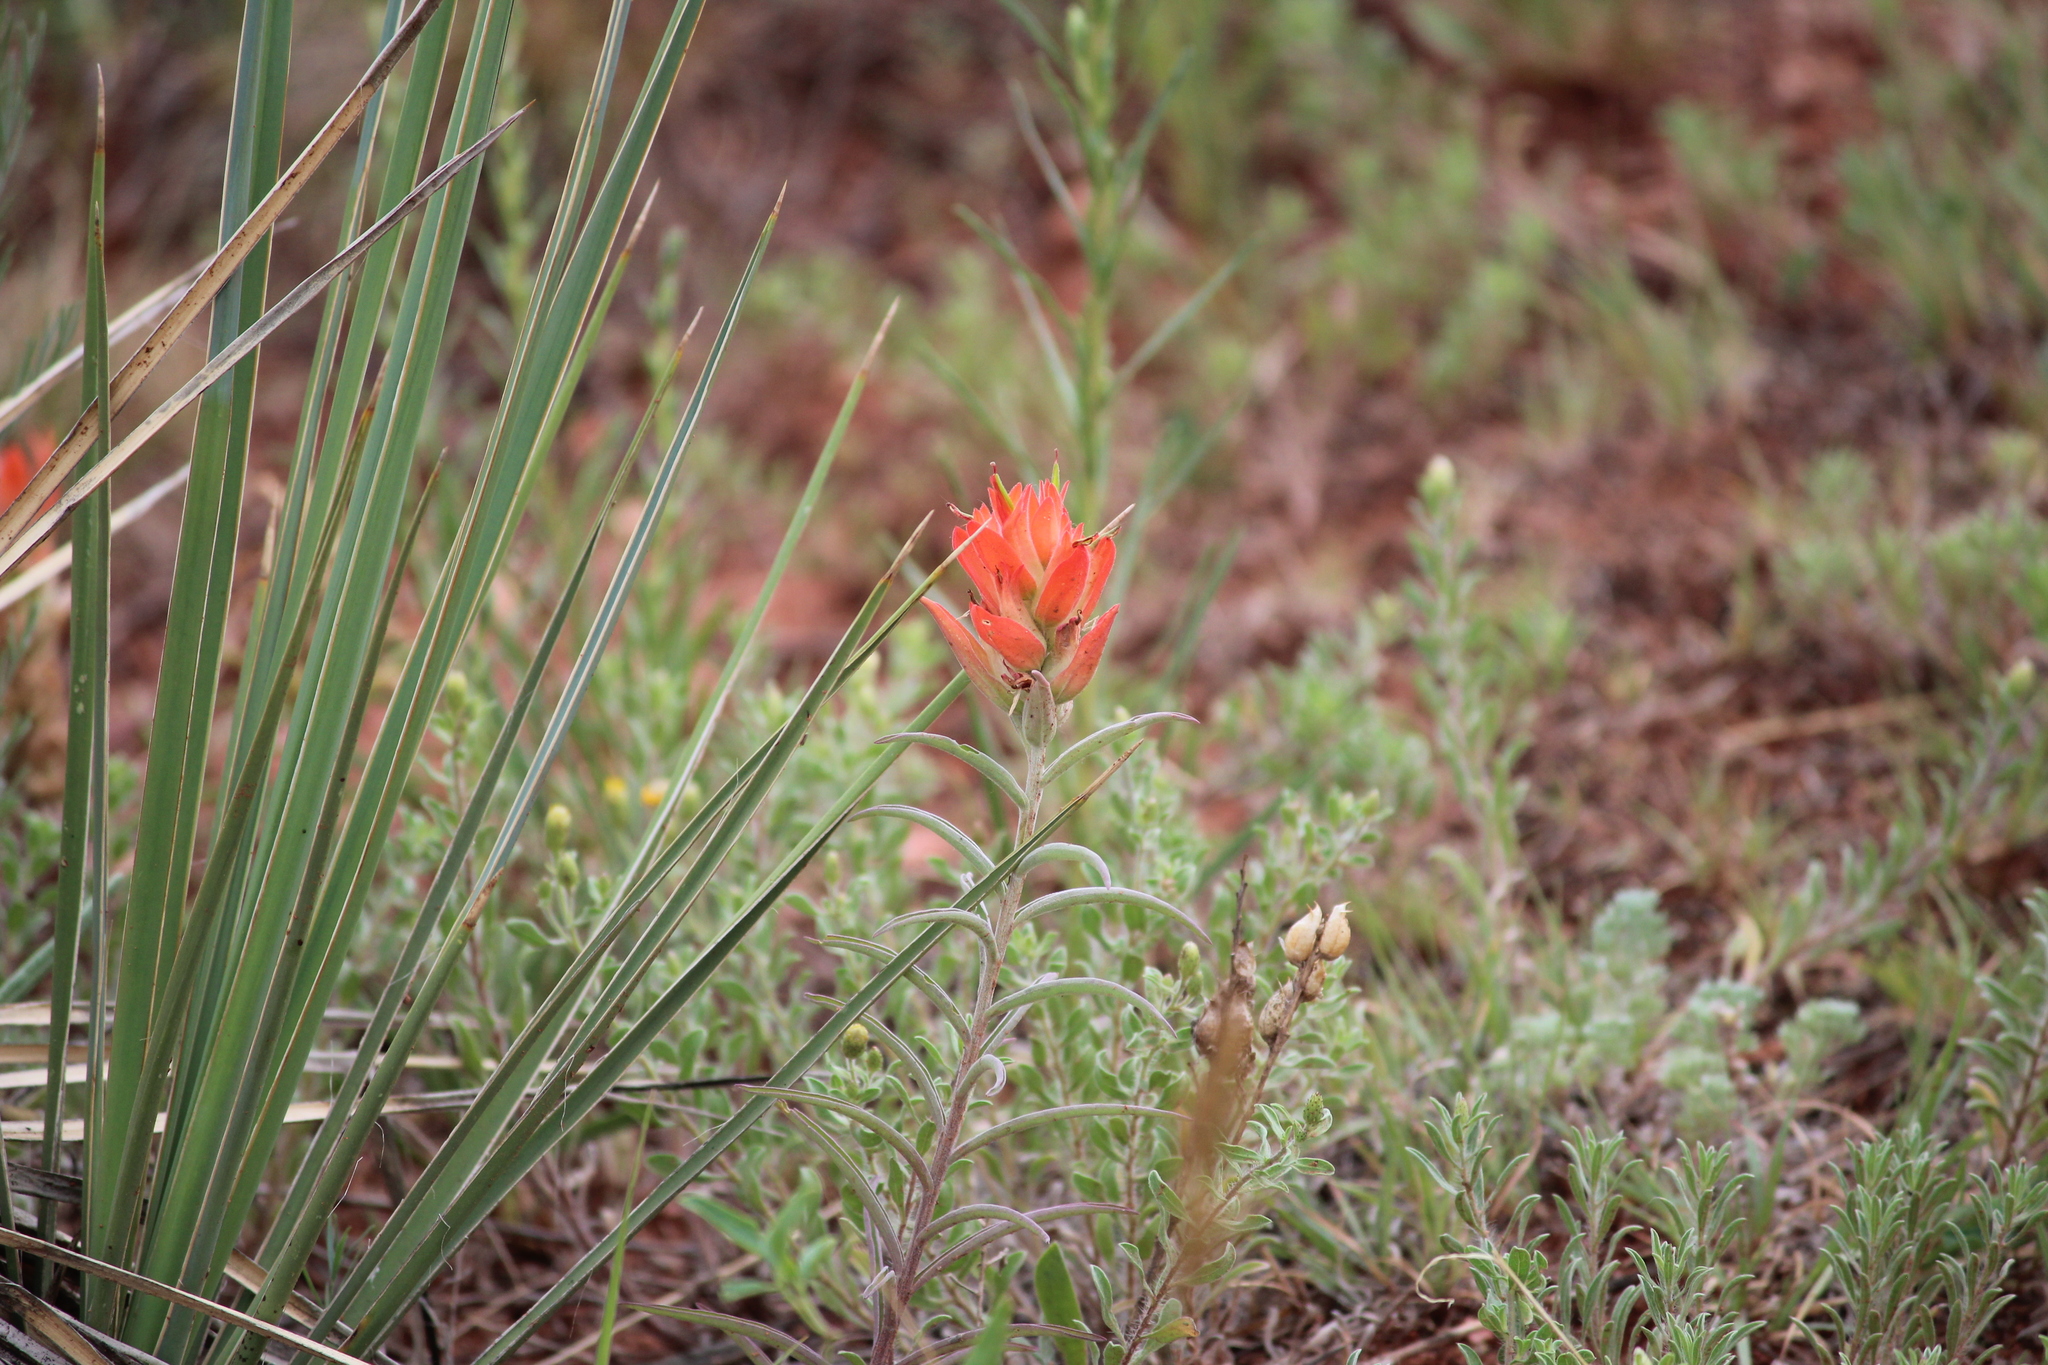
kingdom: Plantae
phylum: Tracheophyta
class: Magnoliopsida
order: Lamiales
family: Orobanchaceae
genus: Castilleja
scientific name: Castilleja integra
